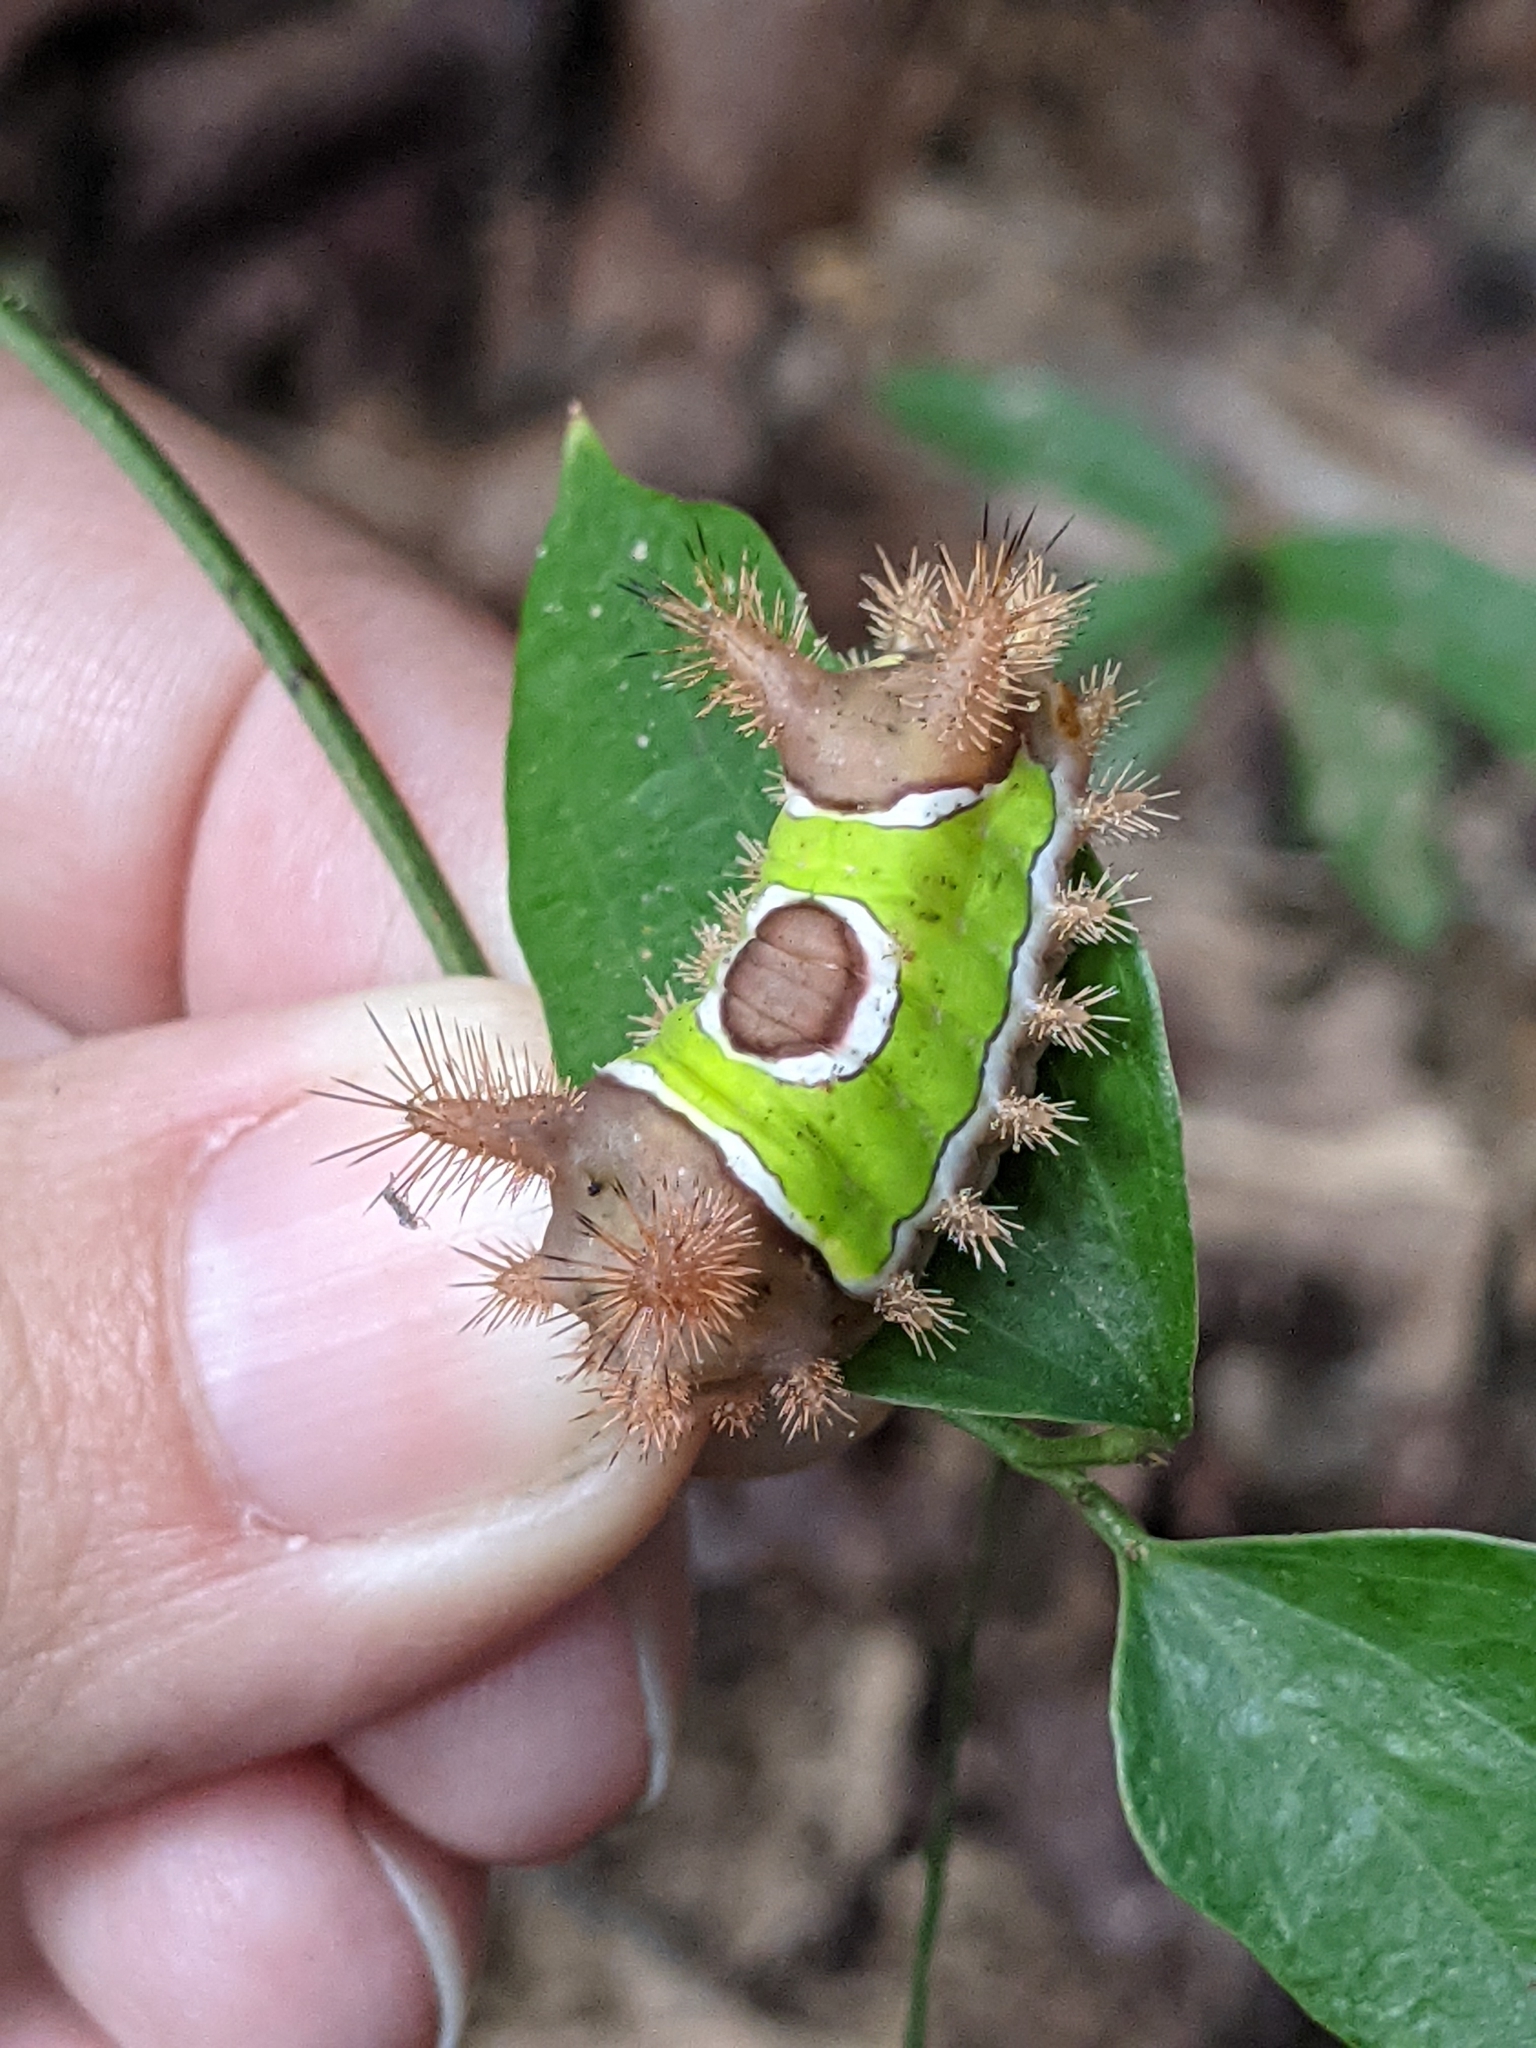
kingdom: Animalia
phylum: Arthropoda
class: Insecta
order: Lepidoptera
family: Limacodidae
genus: Acharia
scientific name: Acharia stimulea
